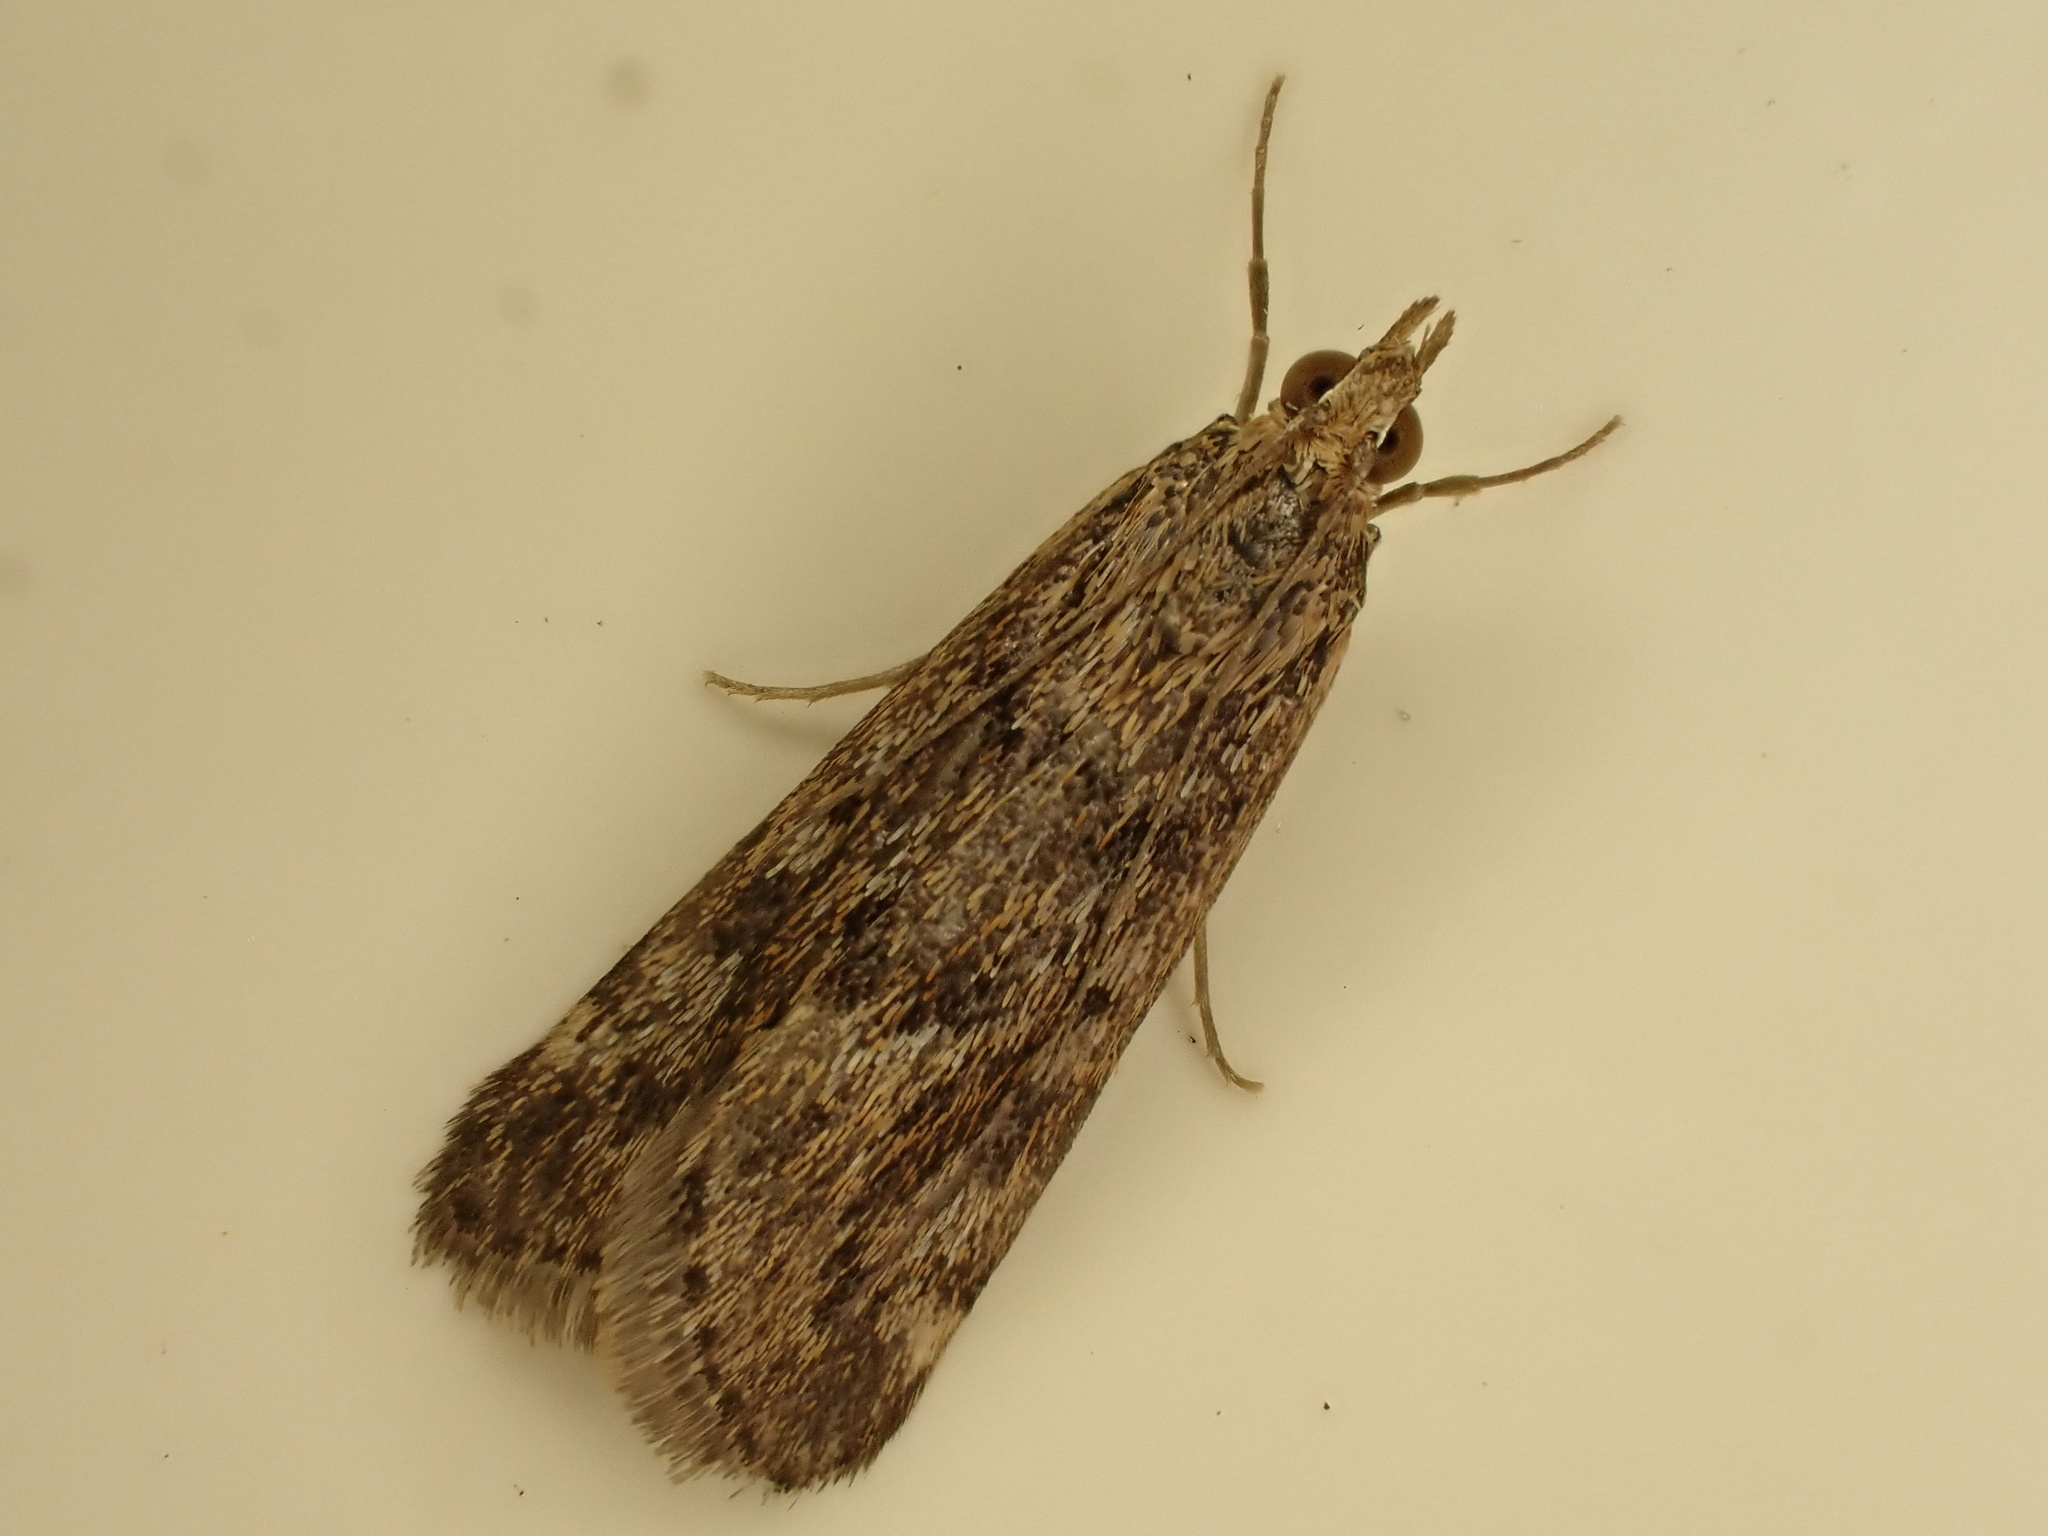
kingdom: Animalia
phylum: Arthropoda
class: Insecta
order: Lepidoptera
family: Crambidae
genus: Achyra
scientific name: Achyra affinitalis
